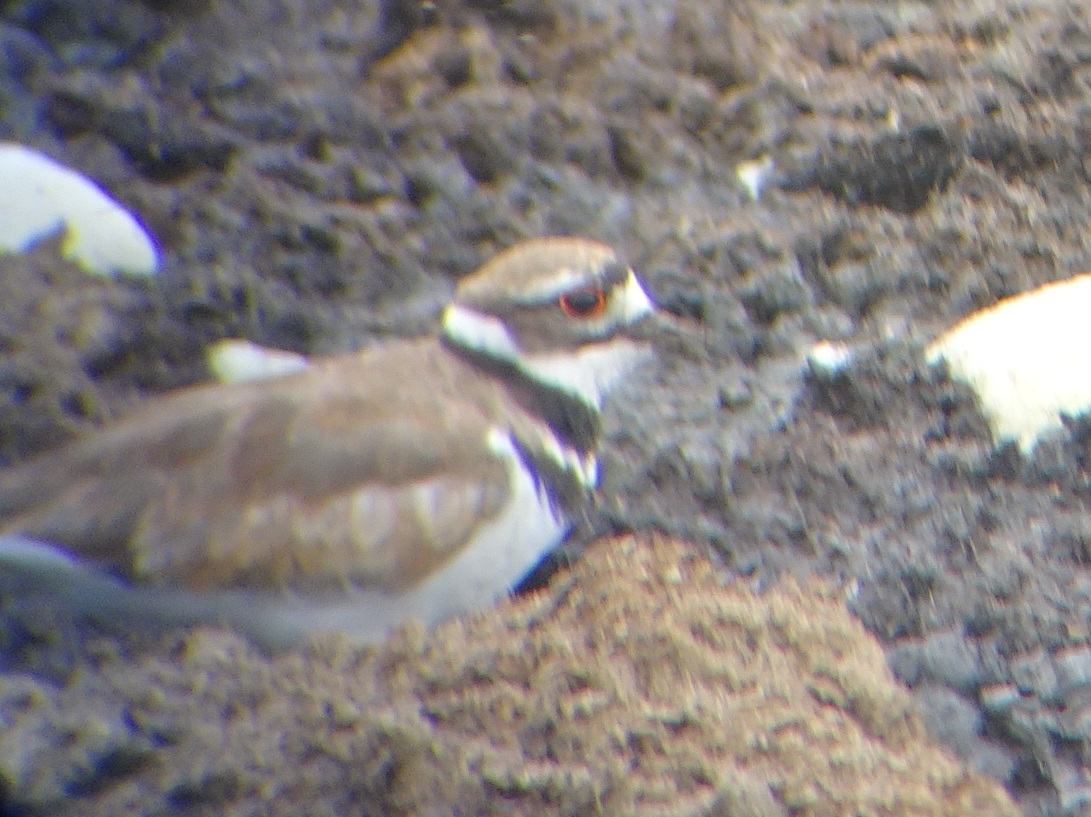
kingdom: Animalia
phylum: Chordata
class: Aves
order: Charadriiformes
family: Charadriidae
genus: Charadrius
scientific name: Charadrius vociferus
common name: Killdeer
